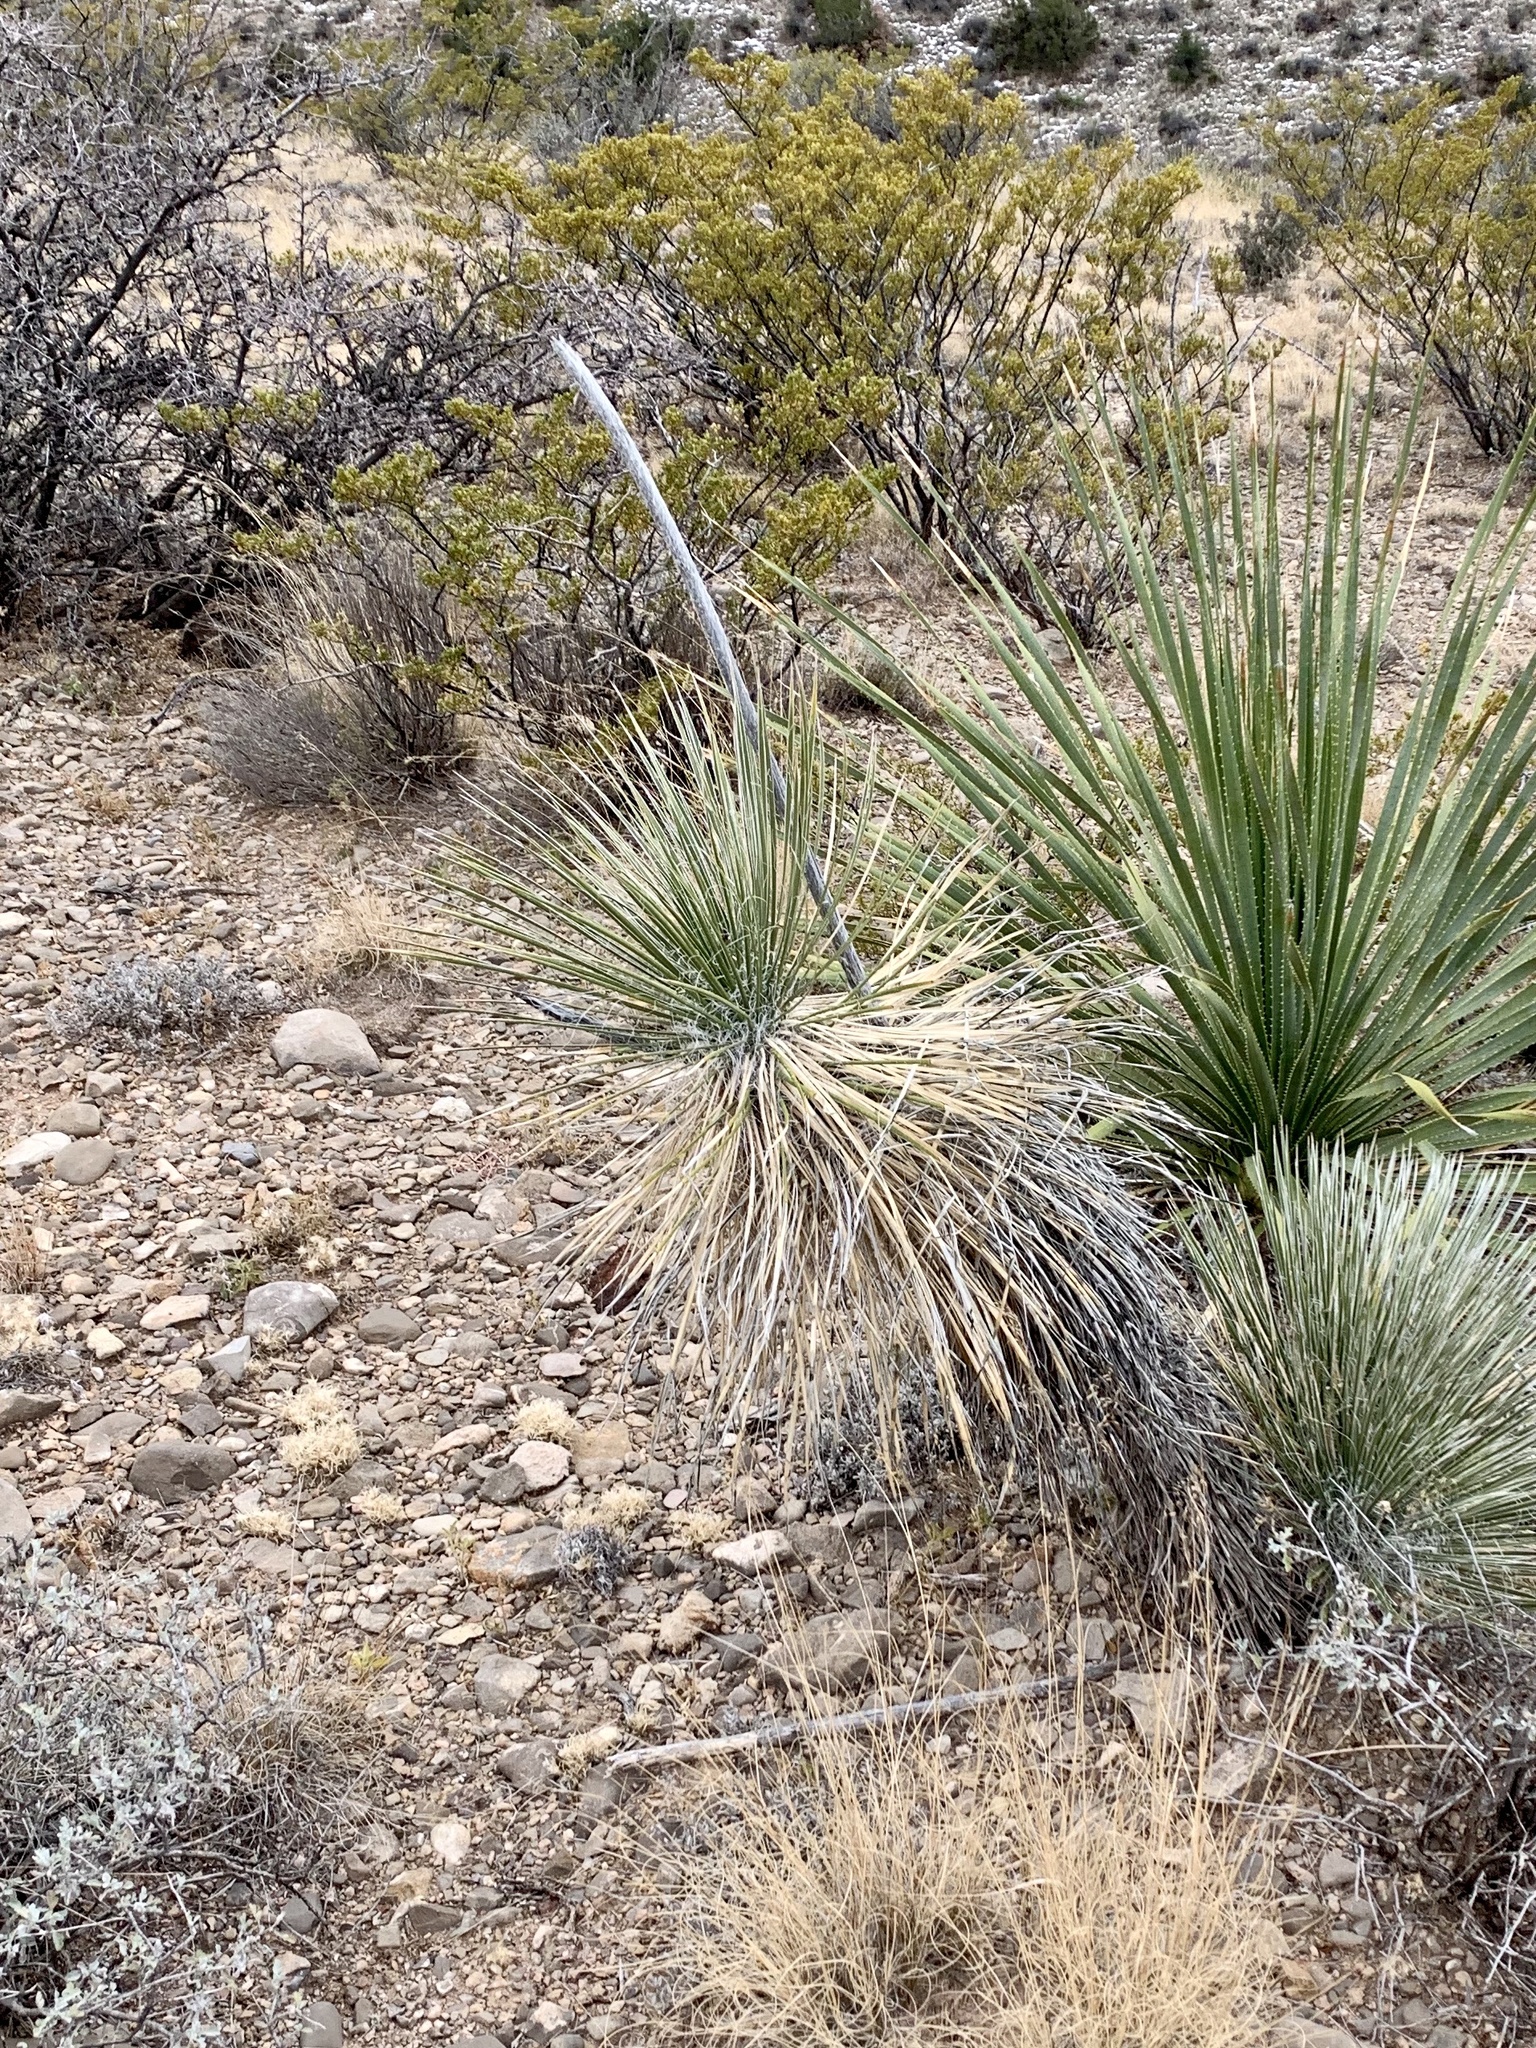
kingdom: Plantae
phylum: Tracheophyta
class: Liliopsida
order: Asparagales
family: Asparagaceae
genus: Yucca
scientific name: Yucca elata
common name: Palmella
